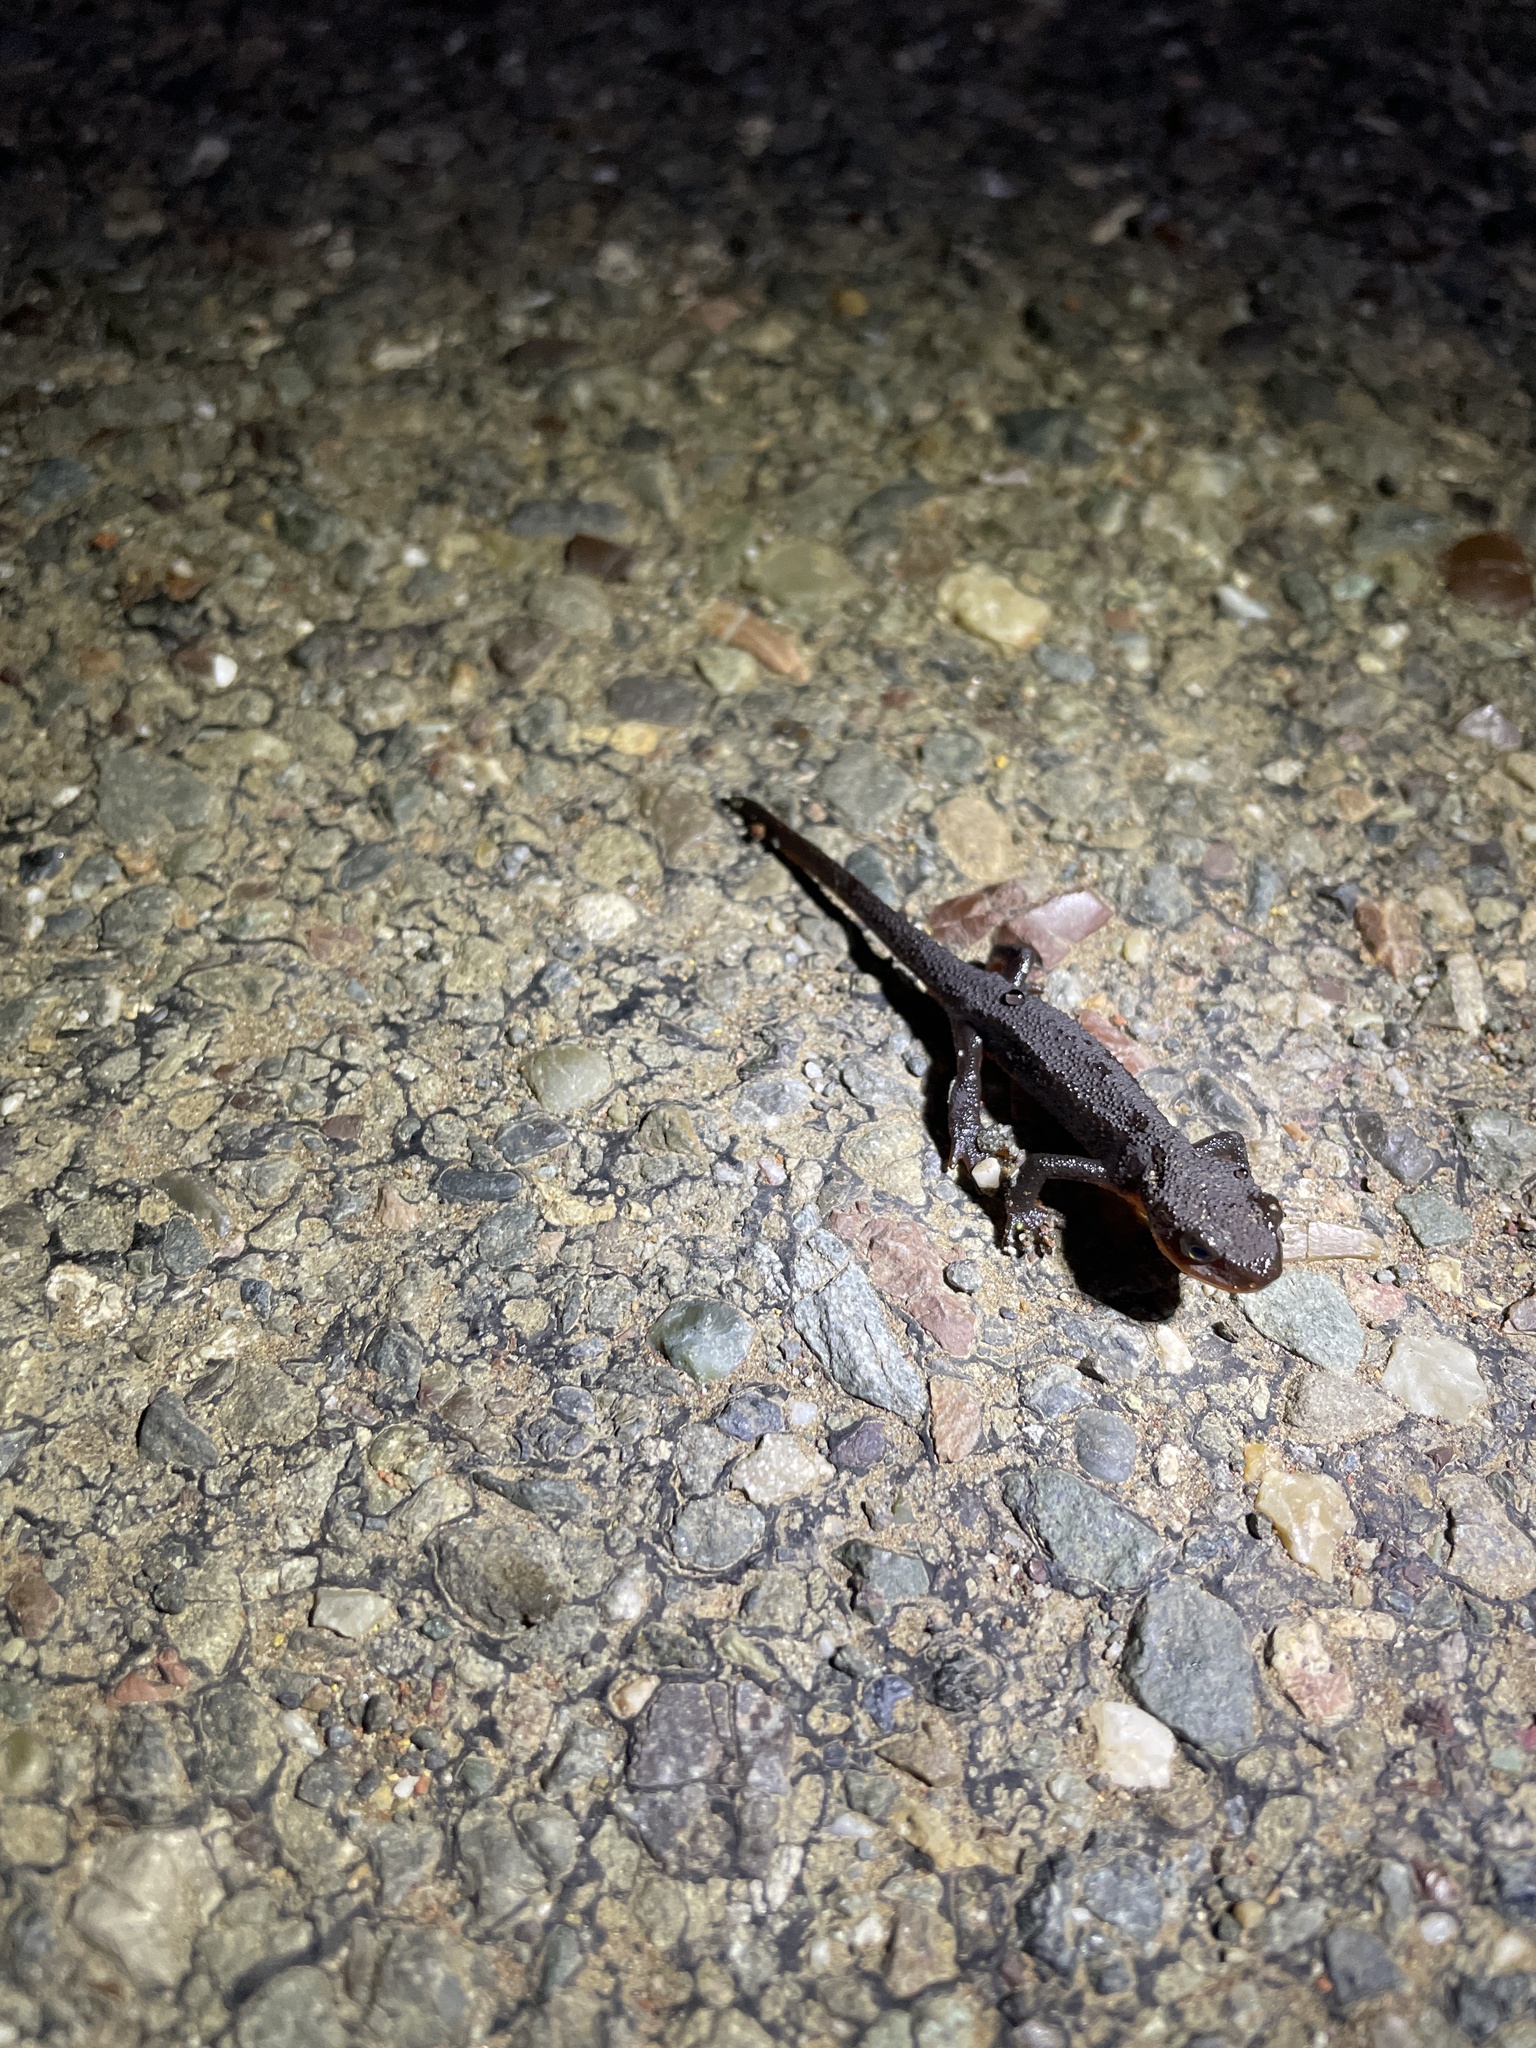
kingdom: Animalia
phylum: Chordata
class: Amphibia
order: Caudata
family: Salamandridae
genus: Taricha
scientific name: Taricha granulosa
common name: Roughskin newt
